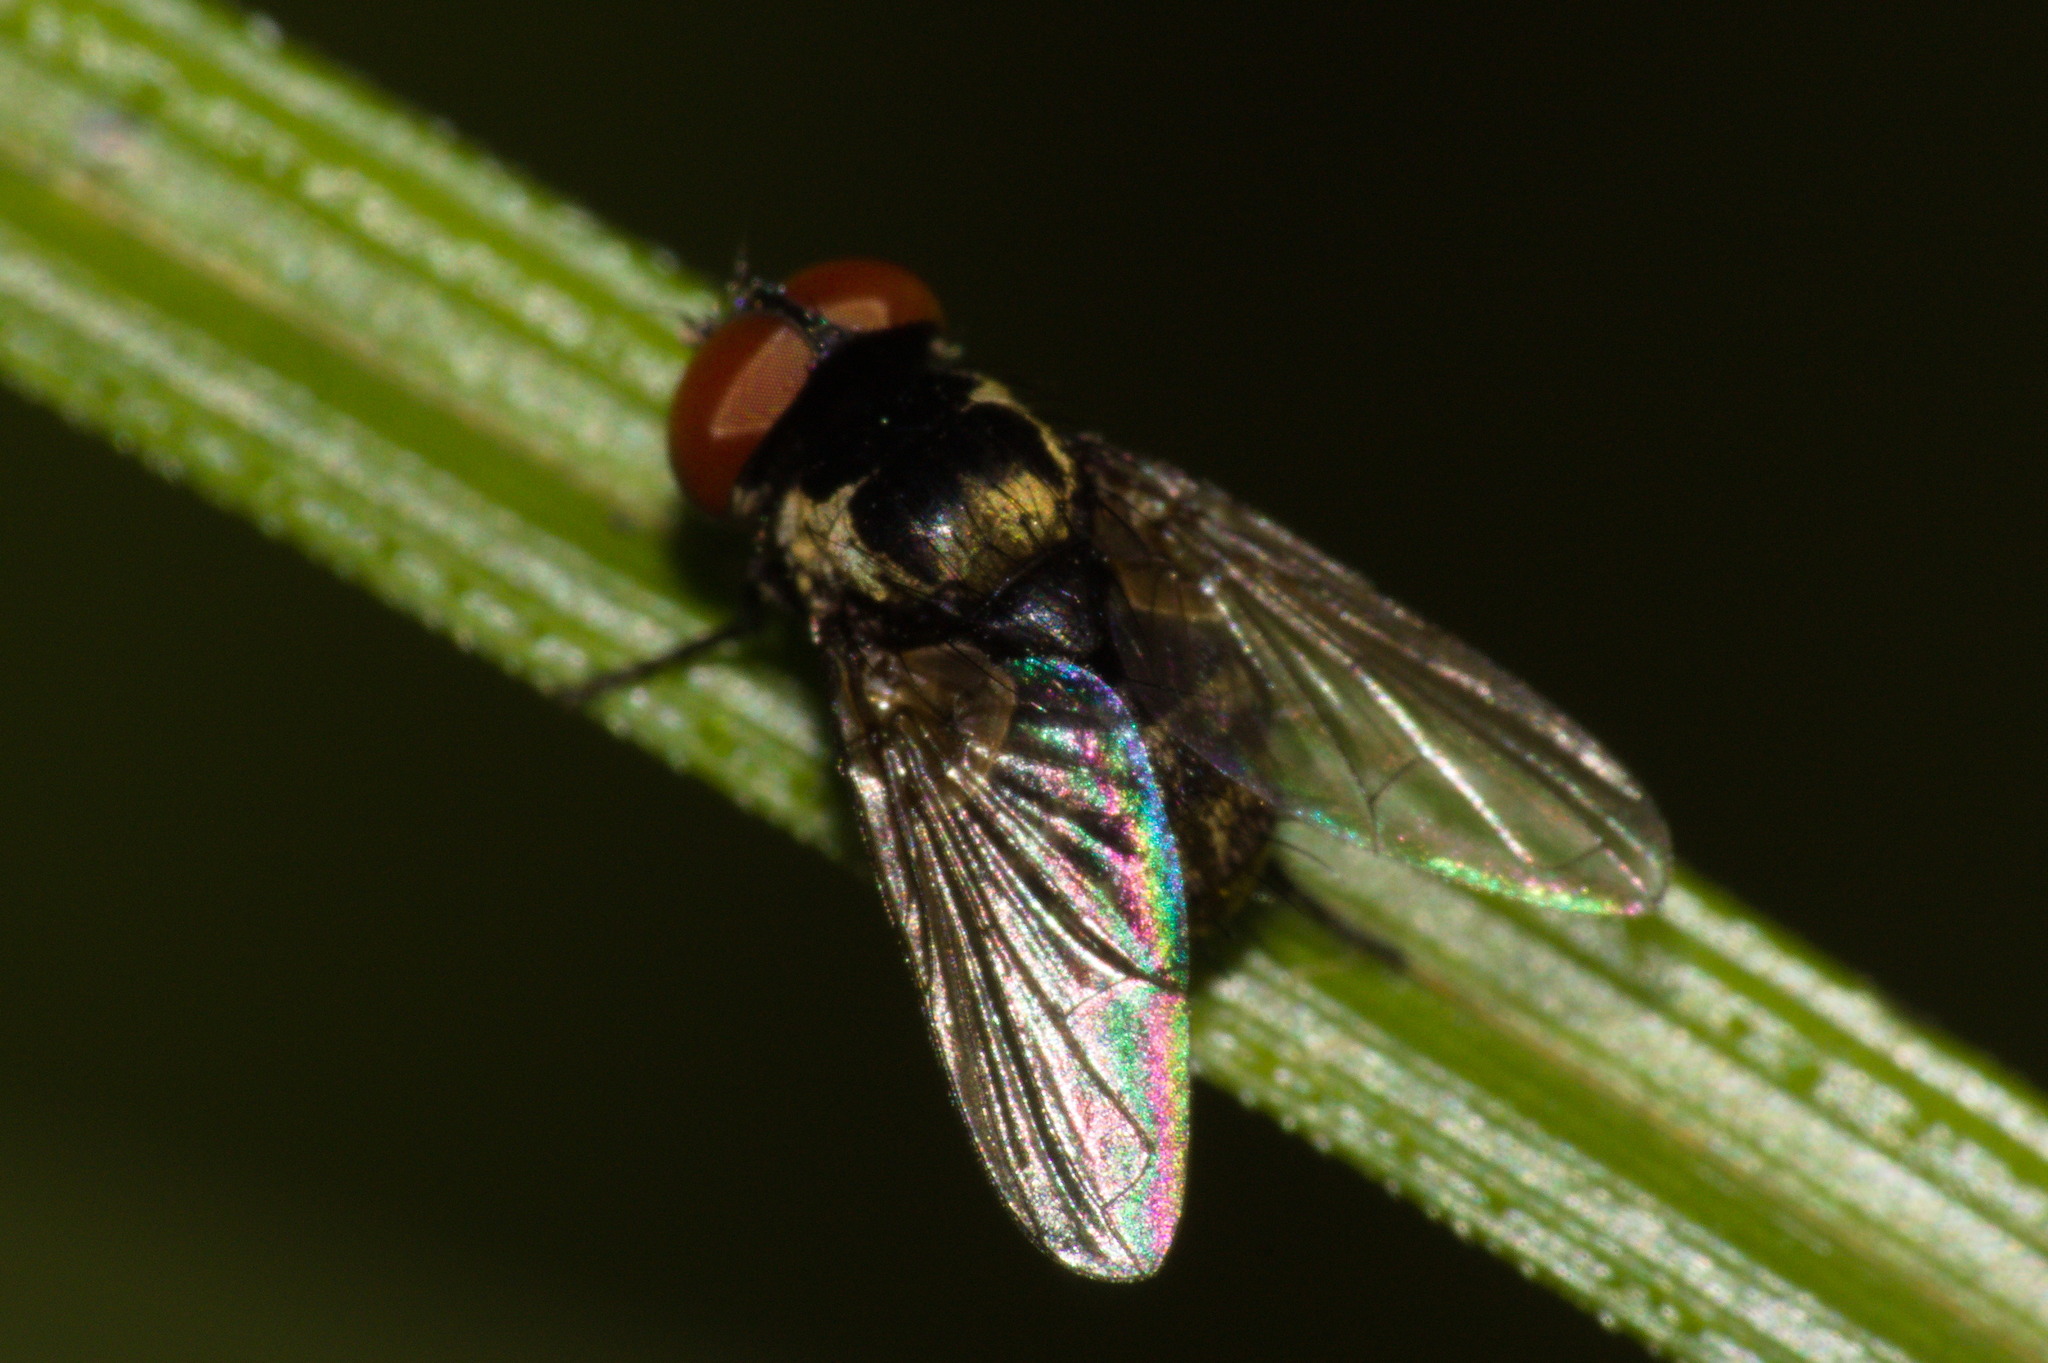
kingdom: Animalia
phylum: Arthropoda
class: Insecta
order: Diptera
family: Tachinidae
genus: Strongygaster
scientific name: Strongygaster brasiliensis
